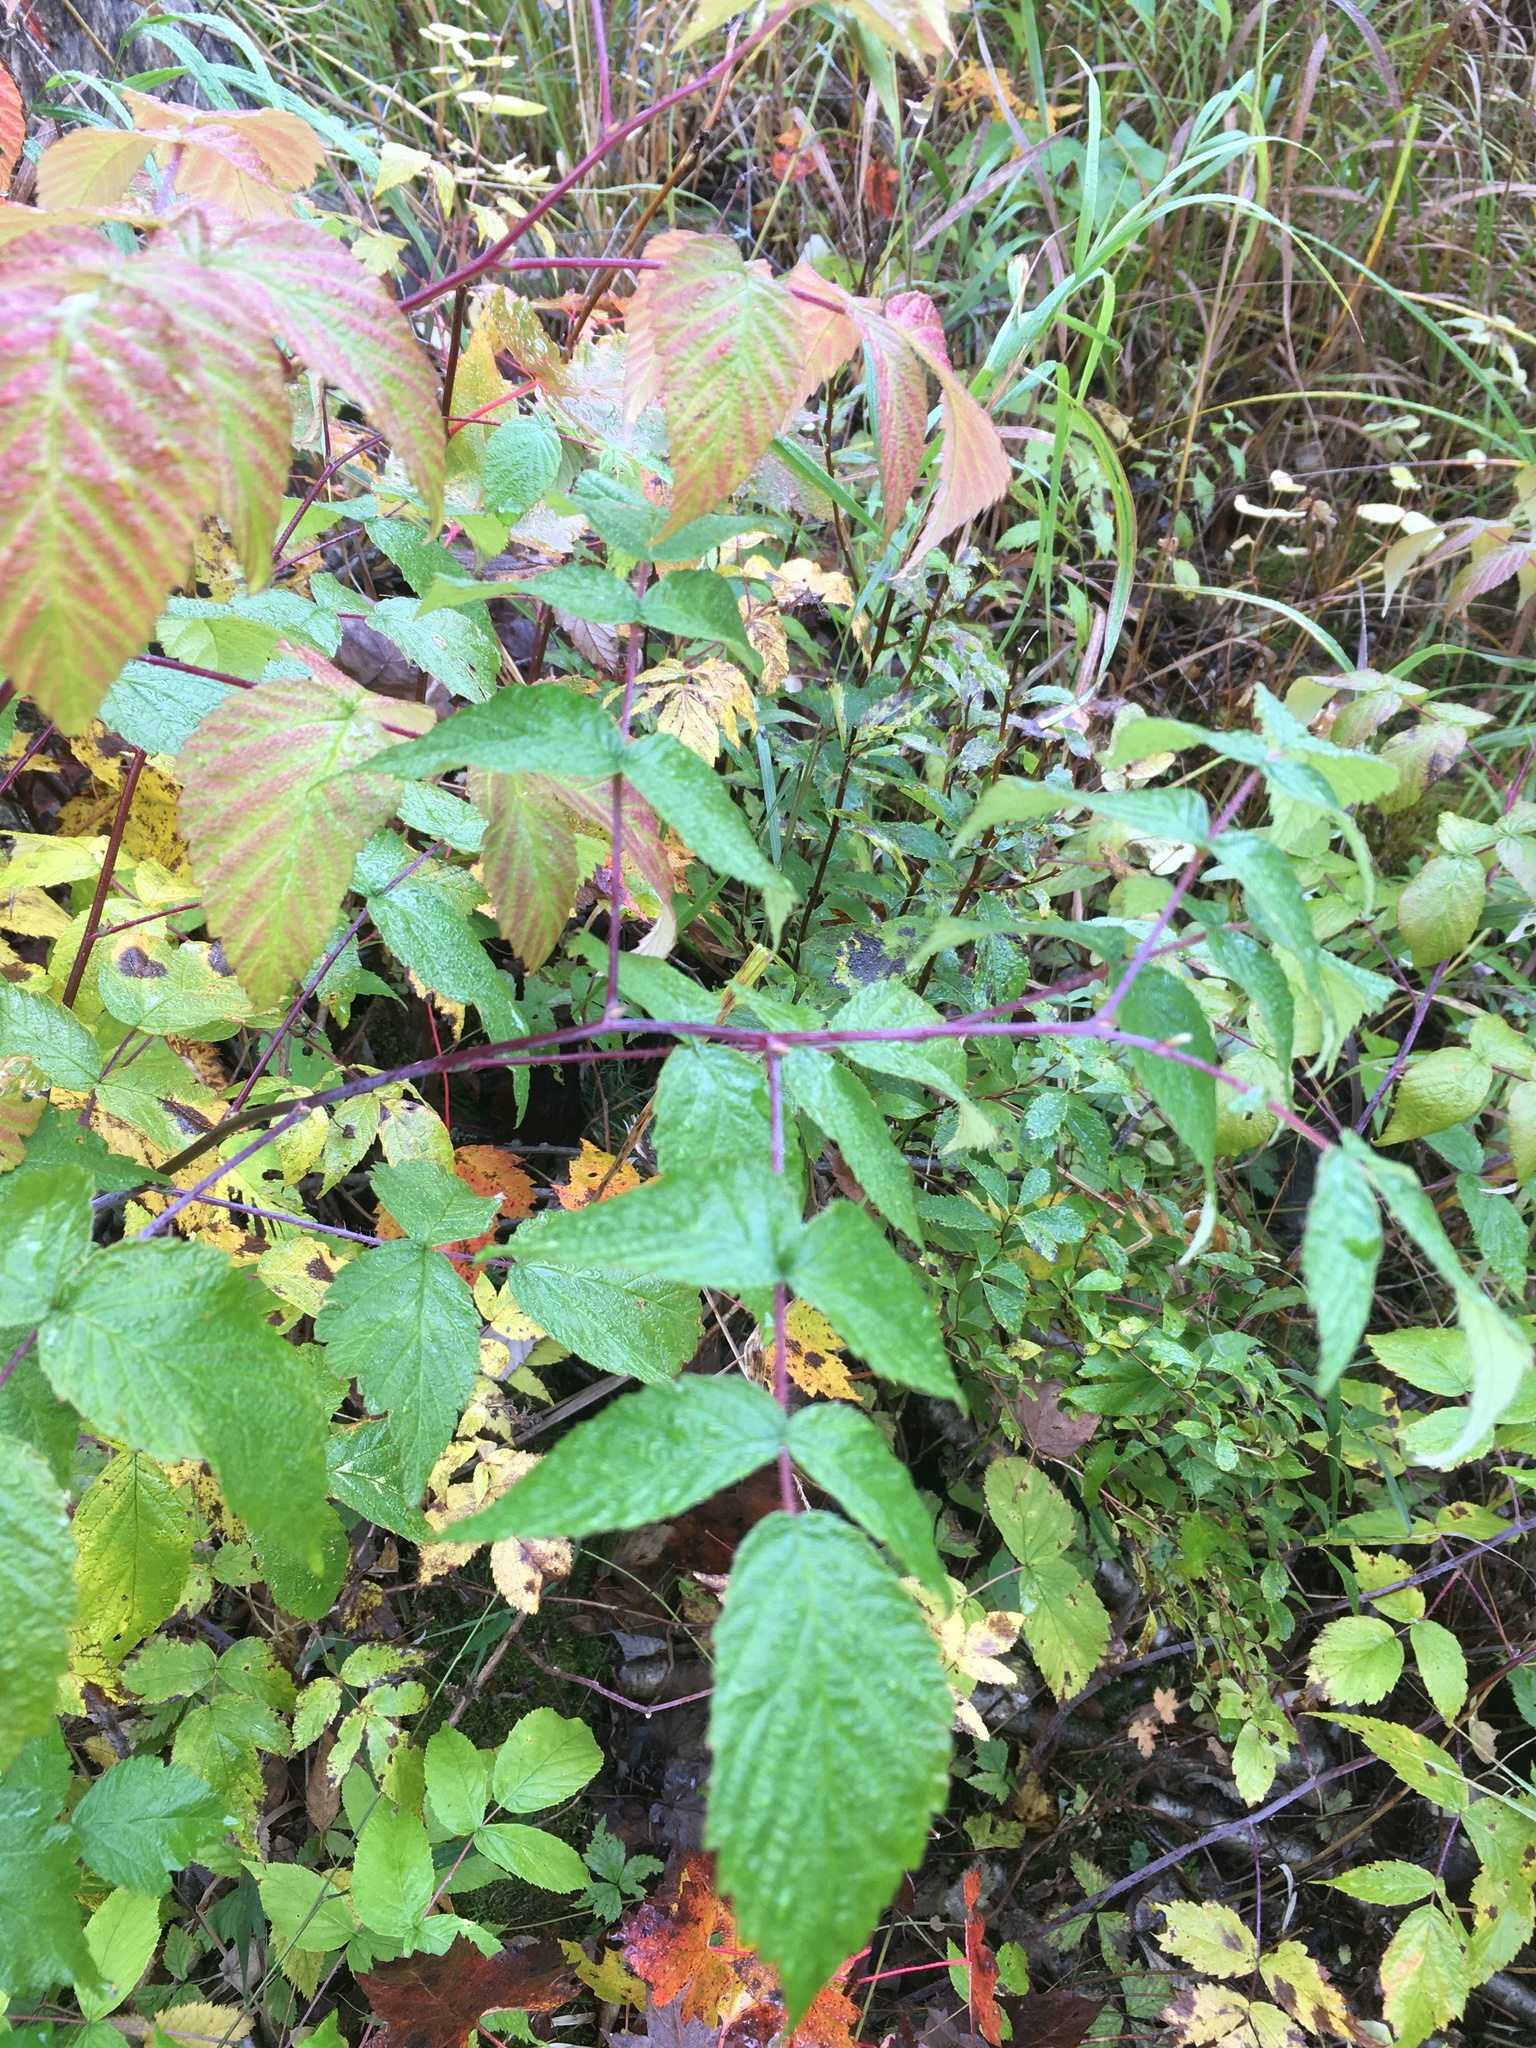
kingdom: Plantae
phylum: Tracheophyta
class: Magnoliopsida
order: Rosales
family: Rosaceae
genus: Rubus
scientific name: Rubus occidentalis
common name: Black raspberry
